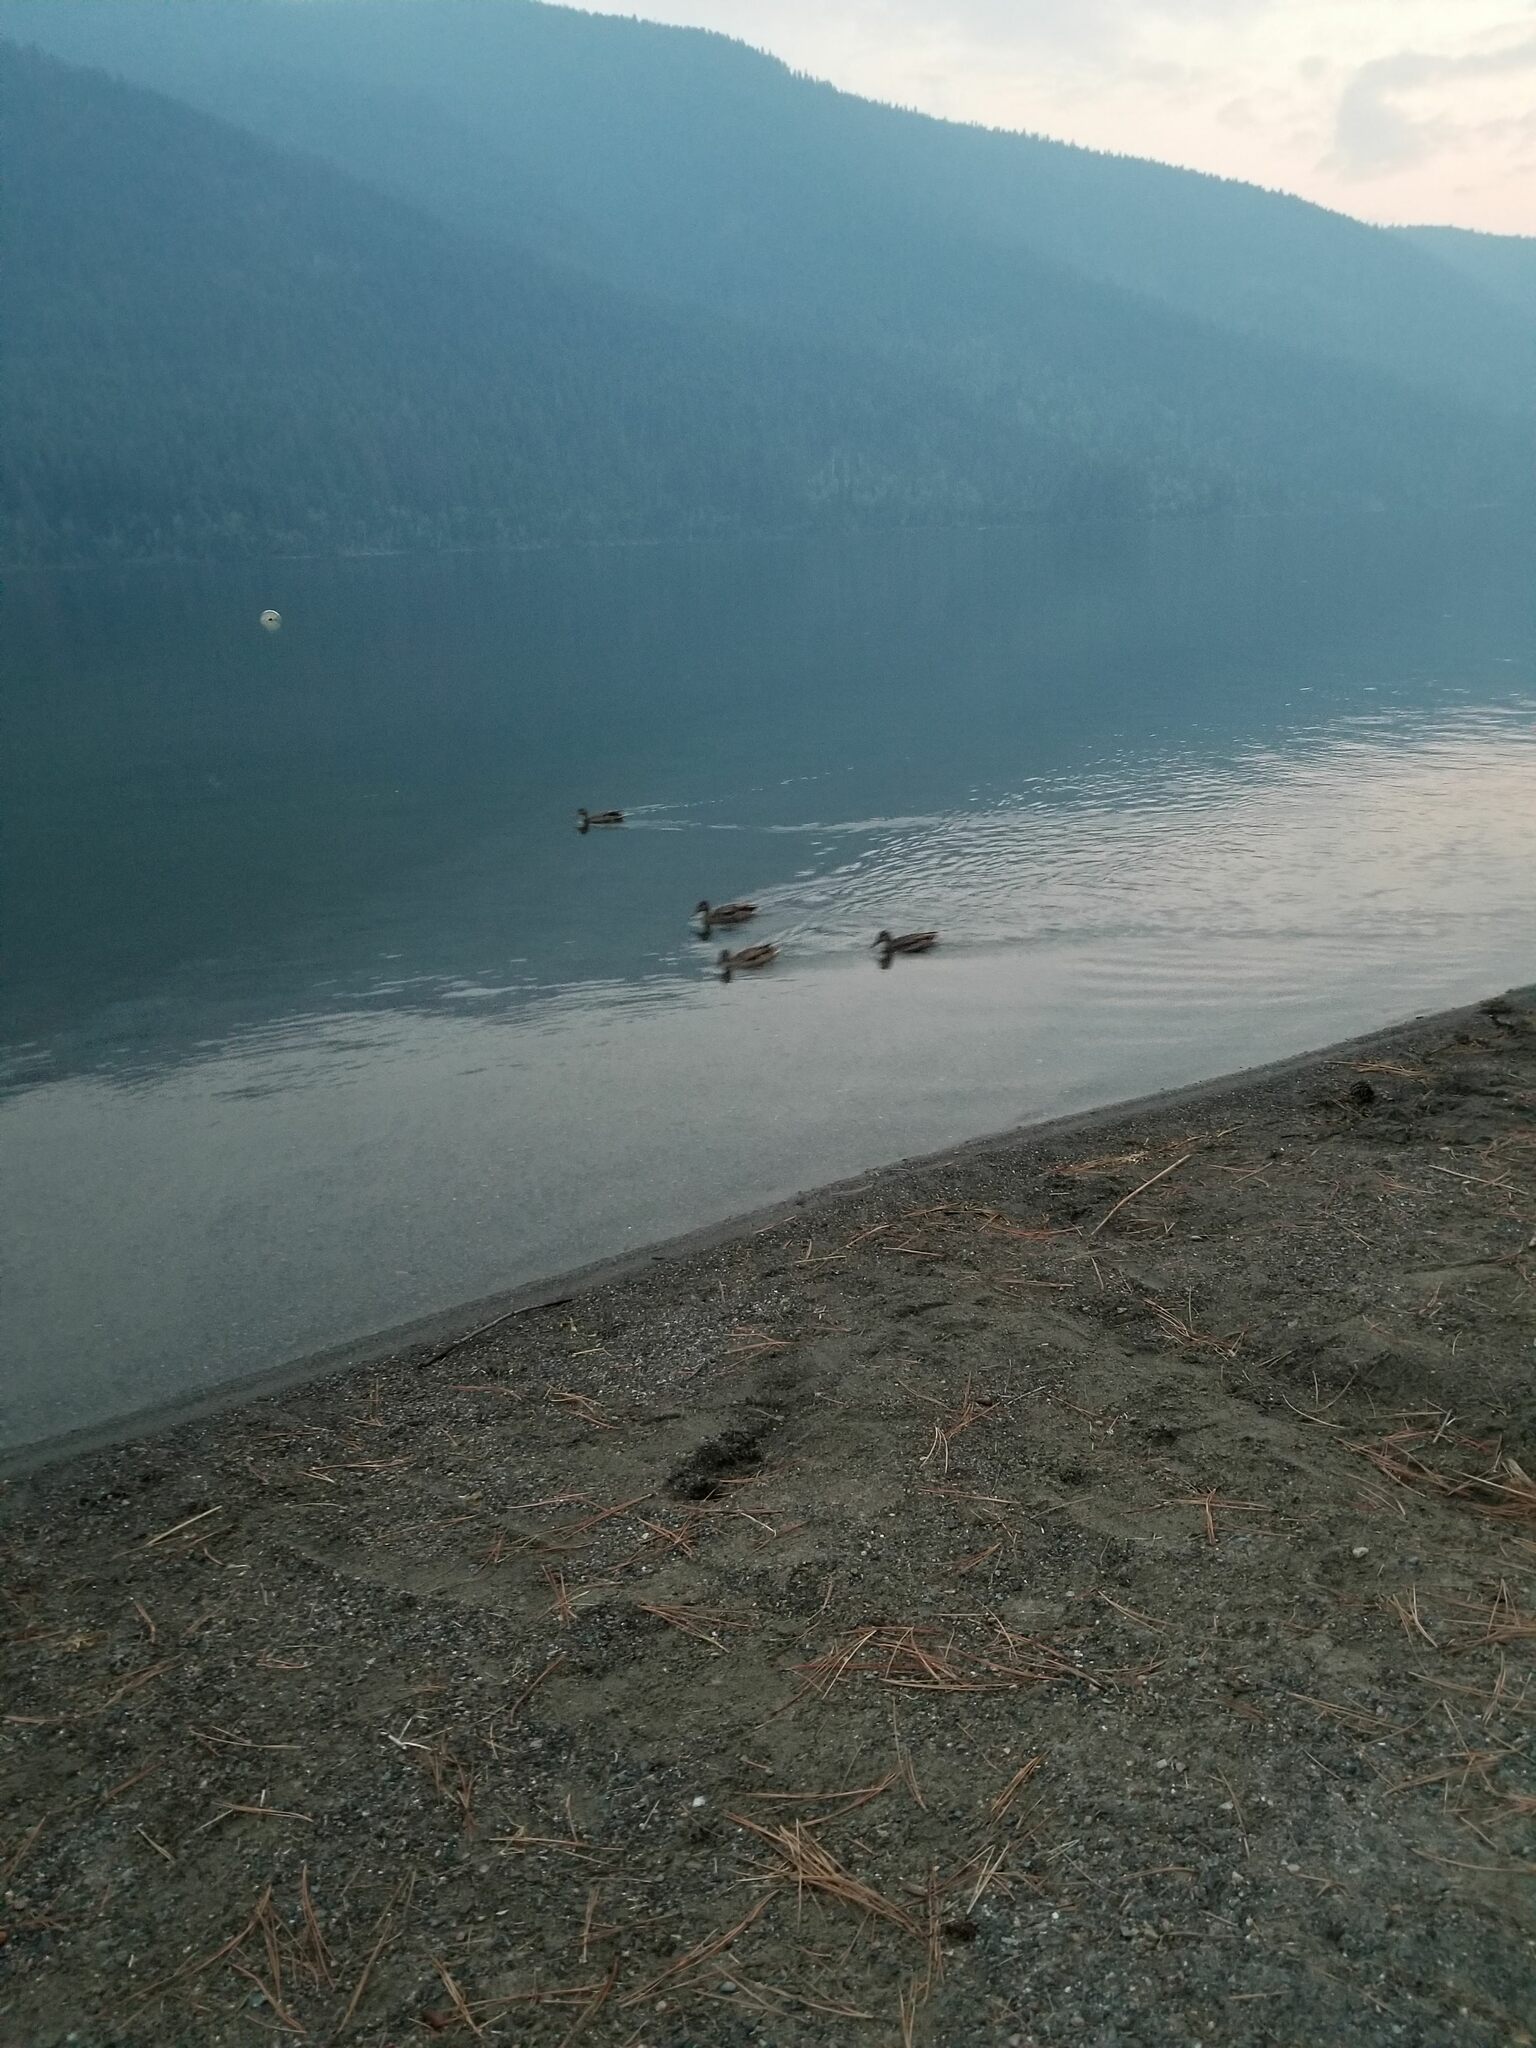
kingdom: Animalia
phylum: Chordata
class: Aves
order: Anseriformes
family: Anatidae
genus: Anas
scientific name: Anas platyrhynchos
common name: Mallard
